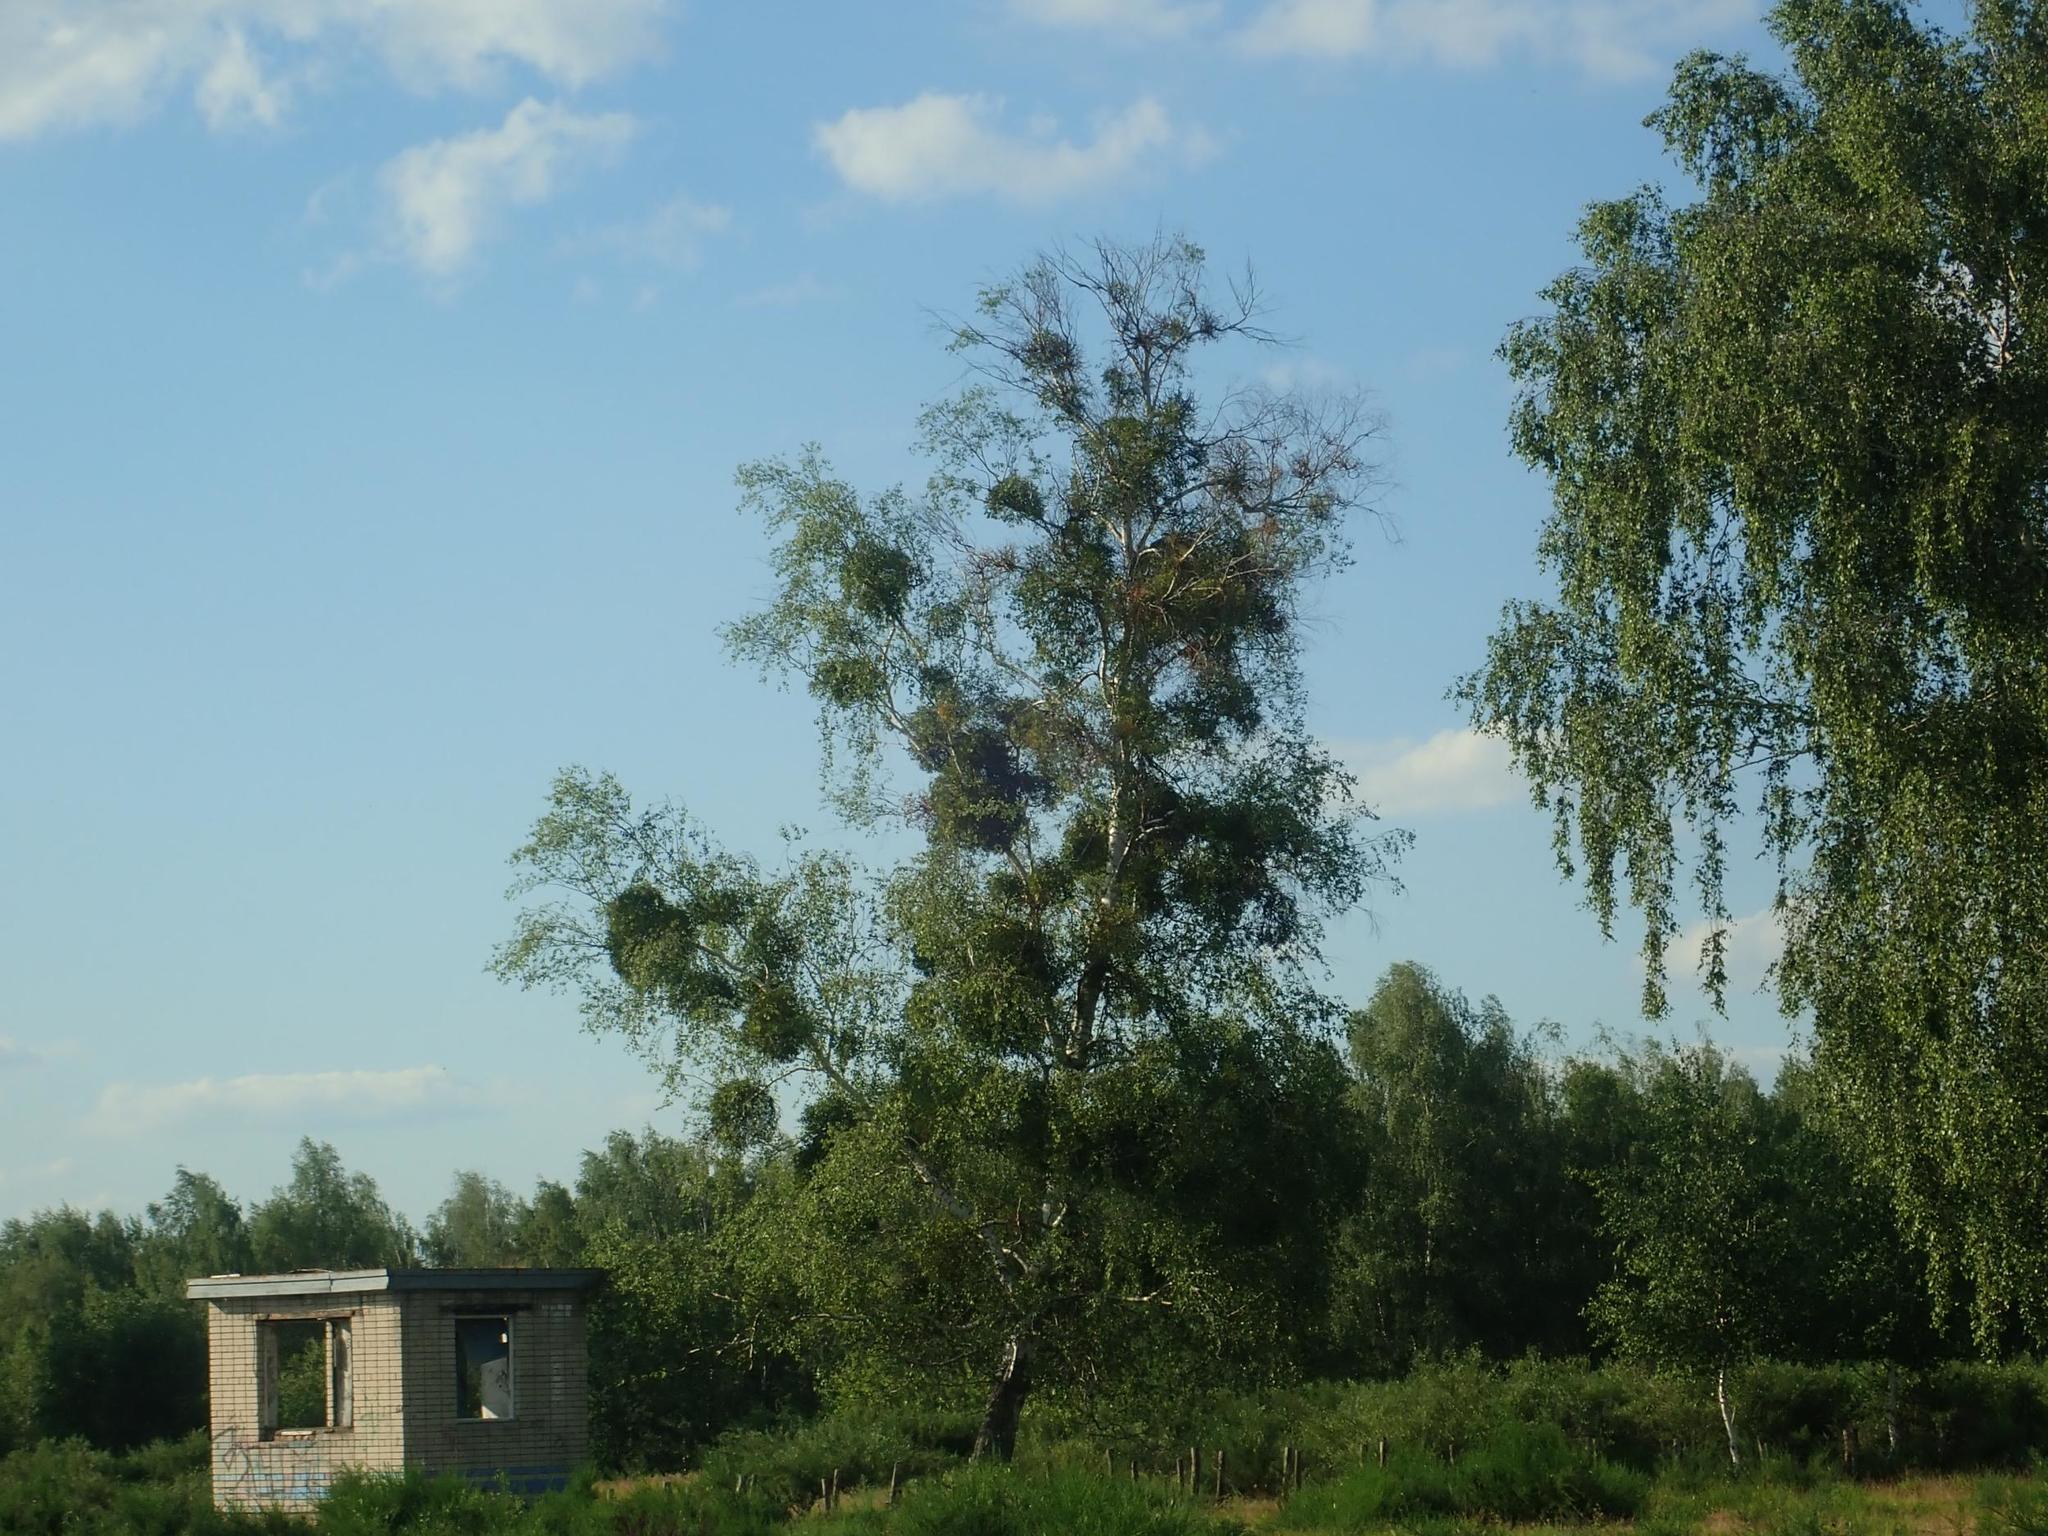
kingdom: Plantae
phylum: Tracheophyta
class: Magnoliopsida
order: Fagales
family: Betulaceae
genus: Betula
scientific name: Betula pendula
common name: Silver birch
